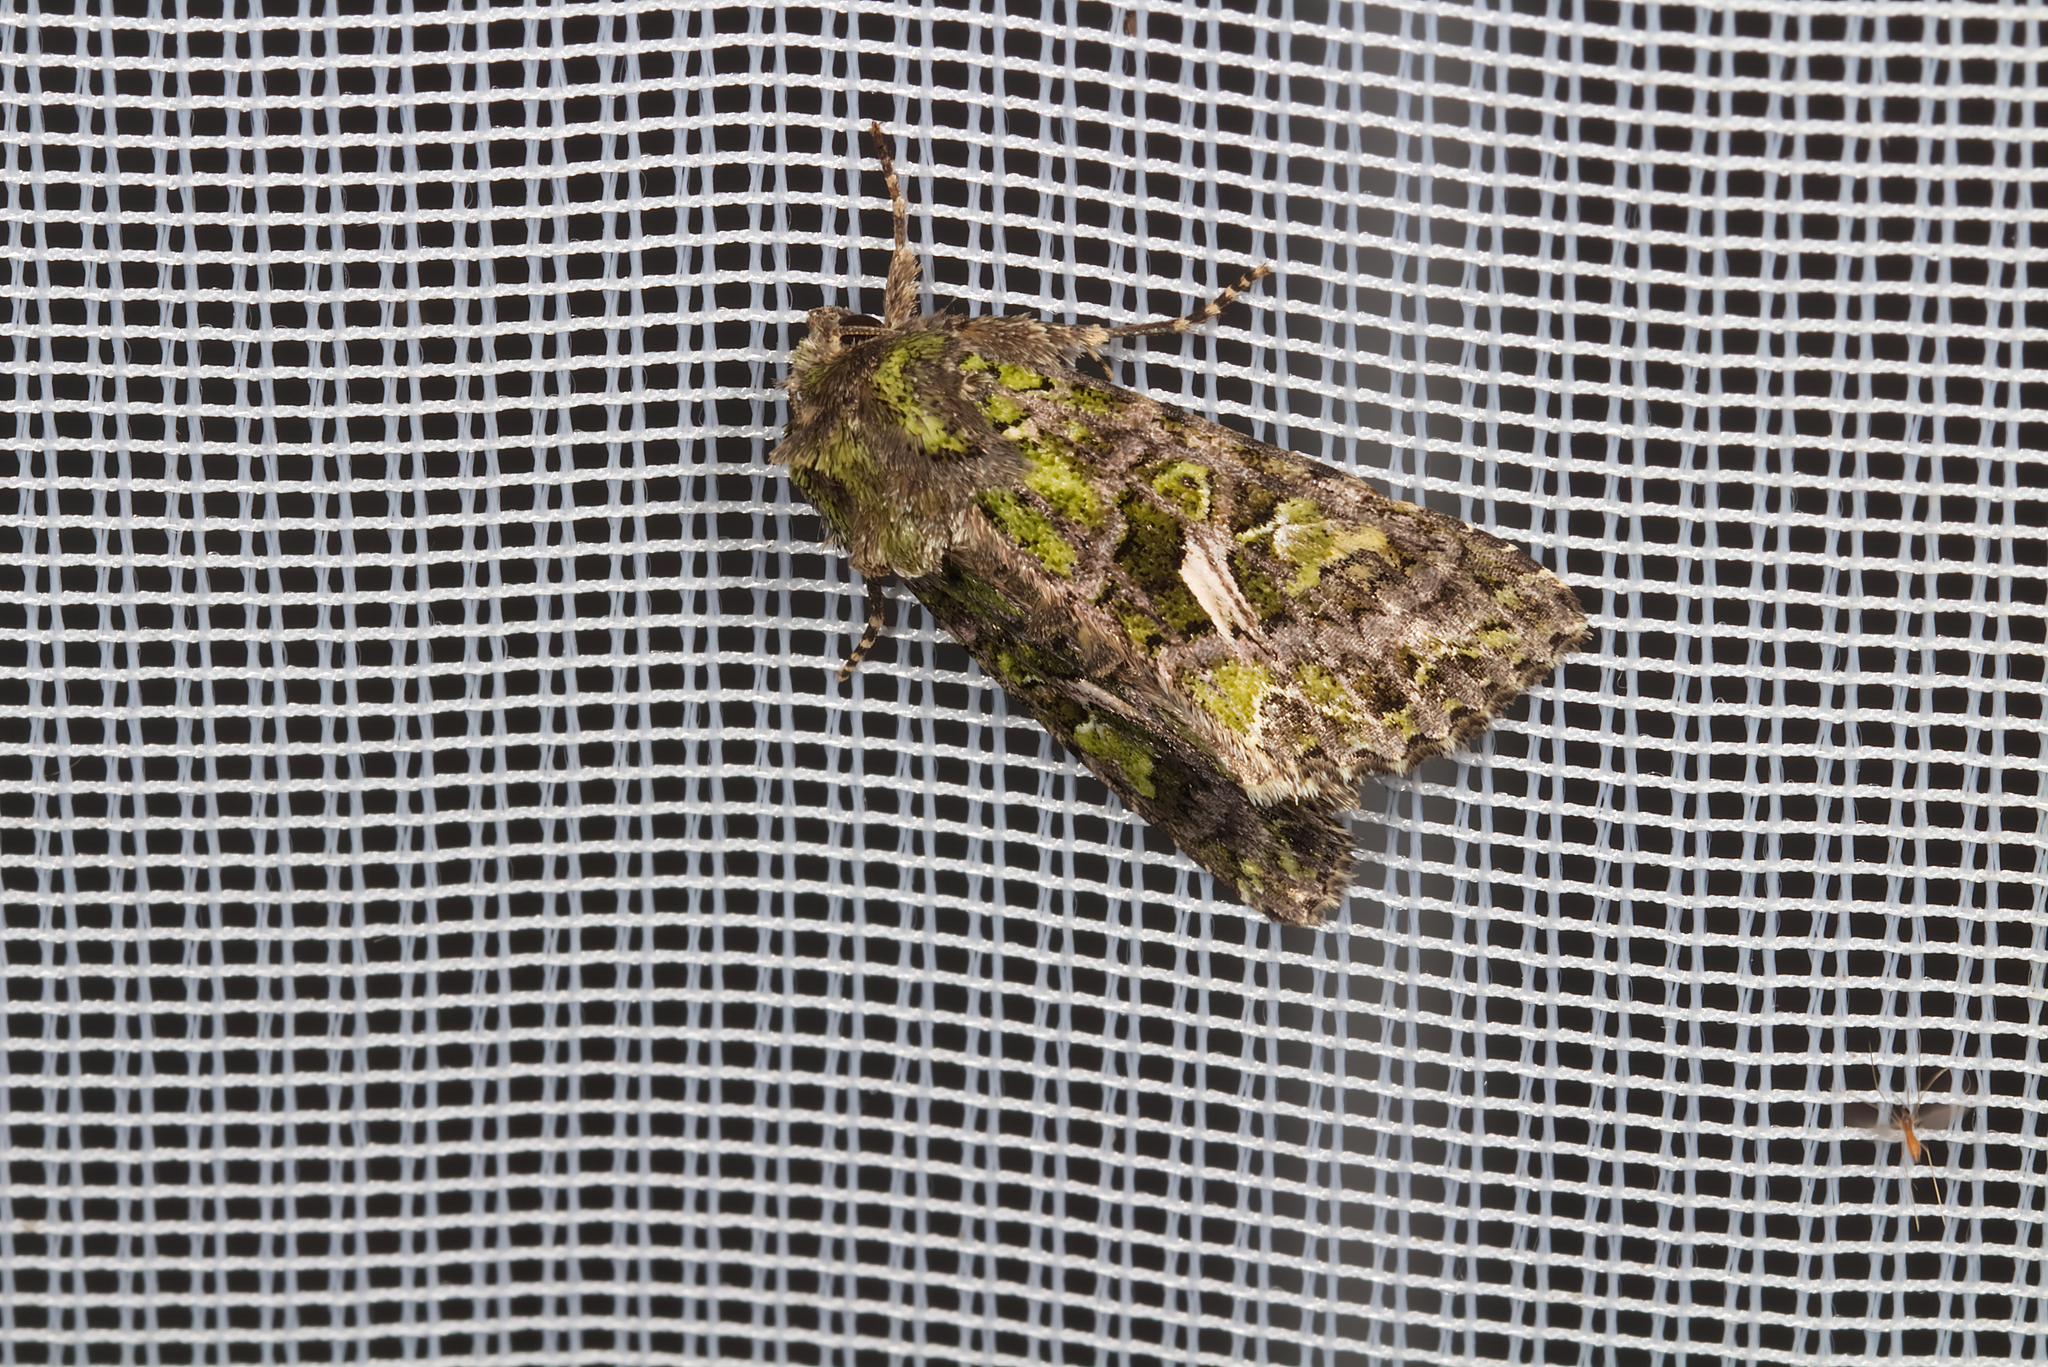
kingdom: Animalia
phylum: Arthropoda
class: Insecta
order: Lepidoptera
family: Noctuidae
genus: Trachea
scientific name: Trachea atriplicis
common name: Orache moth
